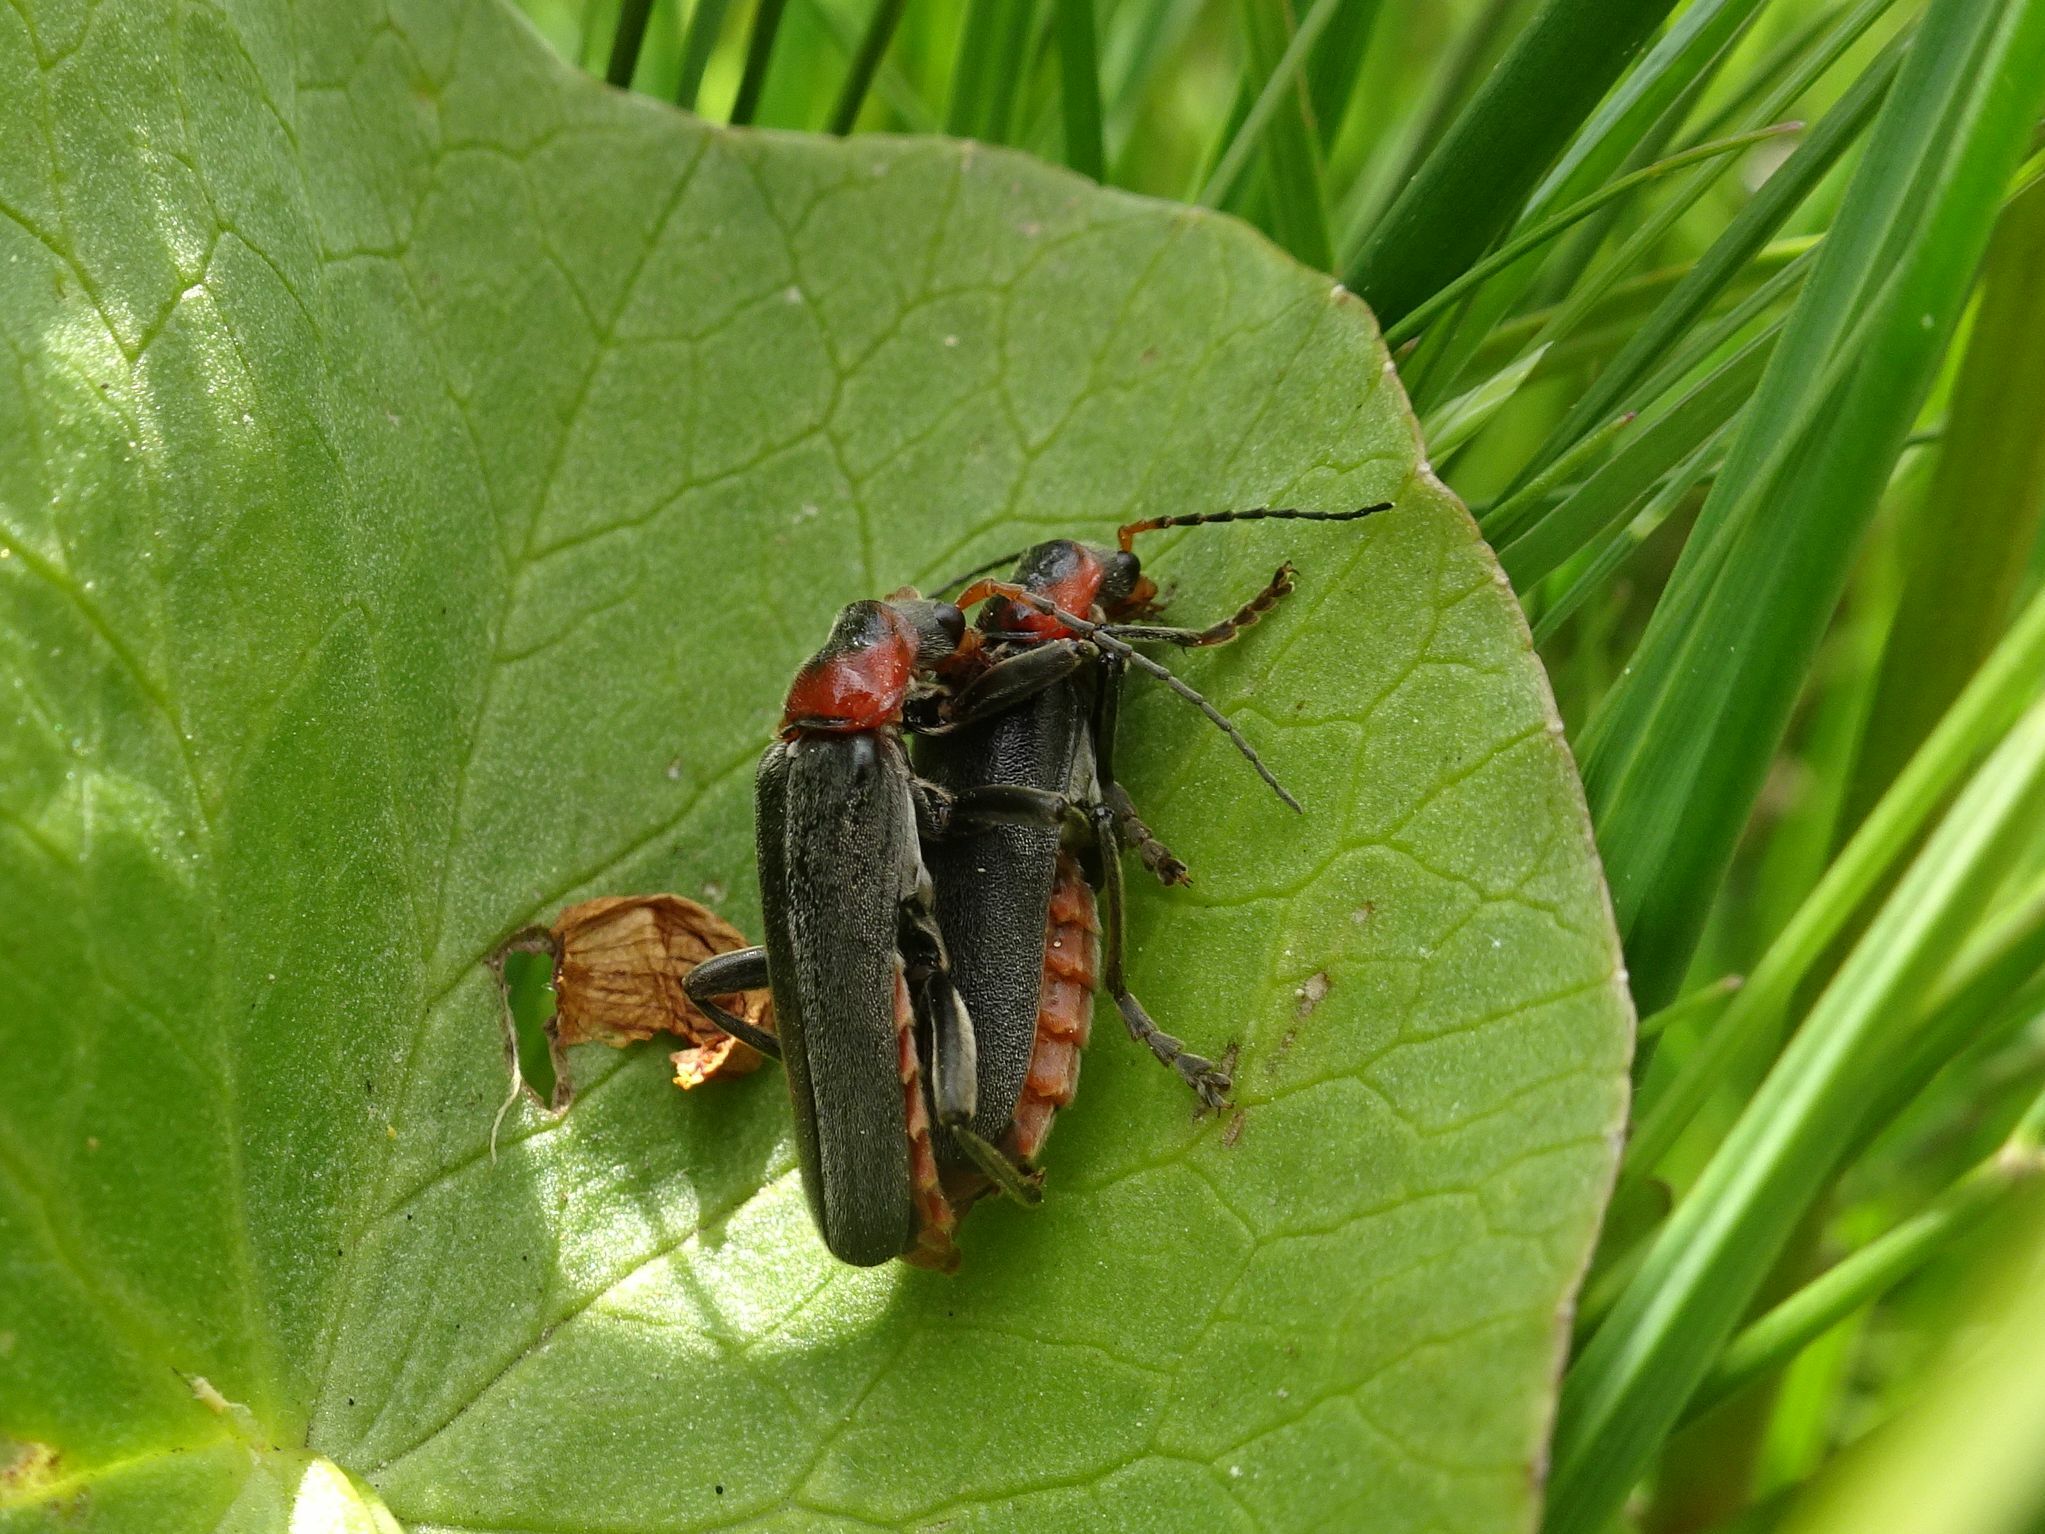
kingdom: Animalia
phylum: Arthropoda
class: Insecta
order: Coleoptera
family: Cantharidae
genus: Cantharis
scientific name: Cantharis fusca
